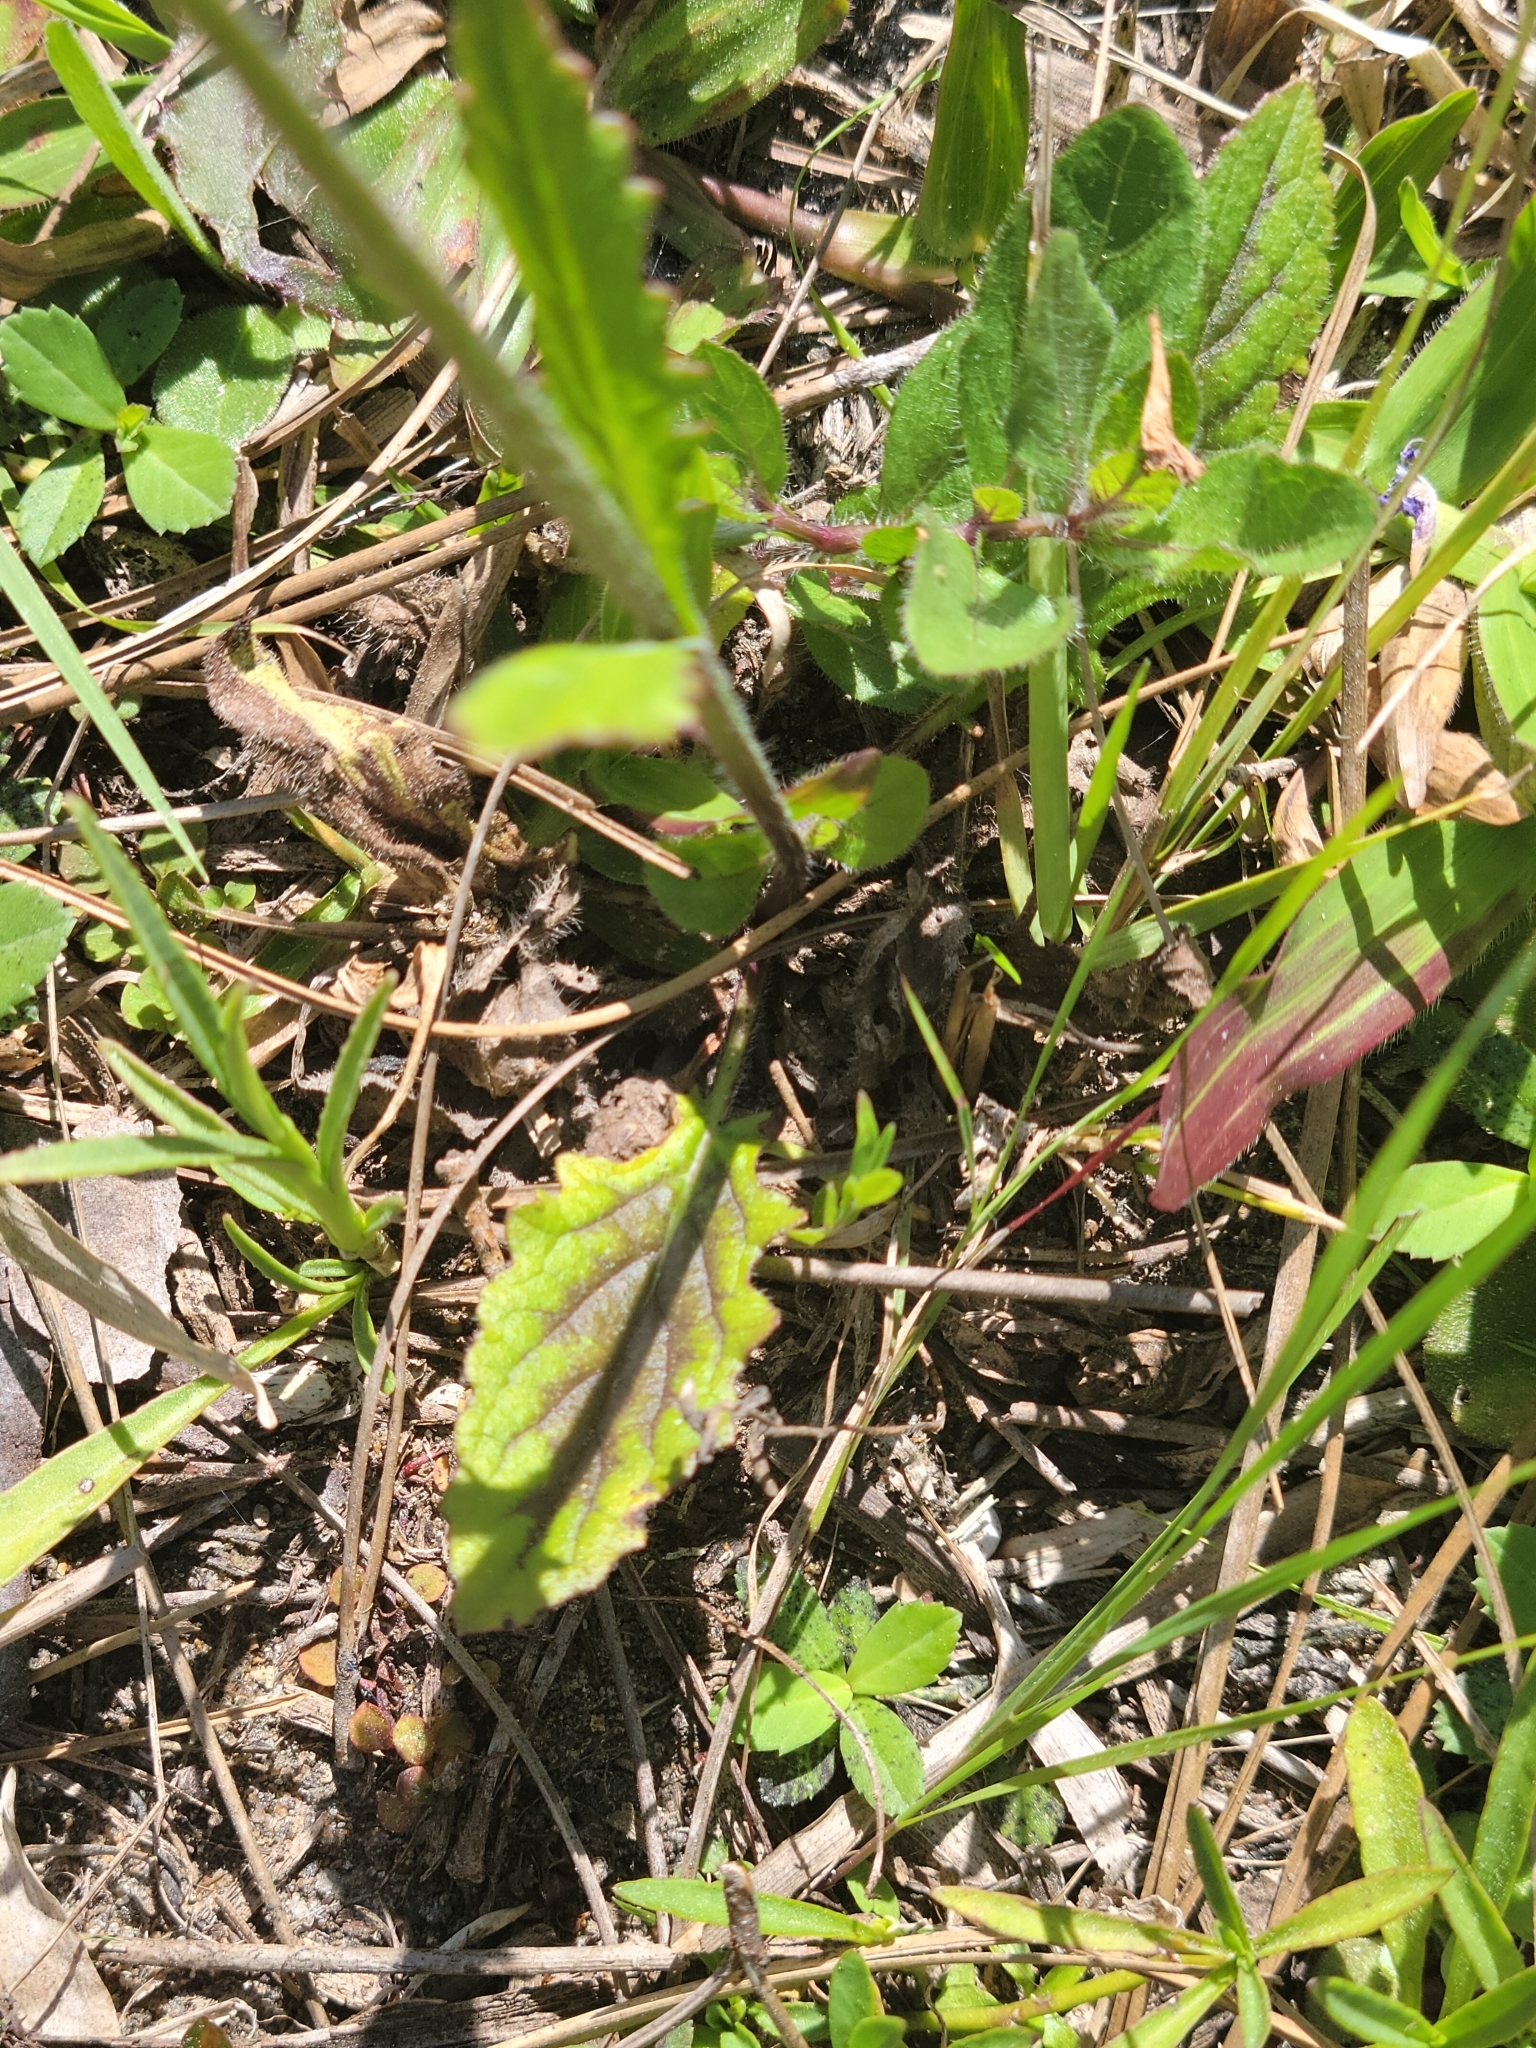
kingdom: Plantae
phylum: Tracheophyta
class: Magnoliopsida
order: Lamiales
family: Lamiaceae
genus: Salvia
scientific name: Salvia lyrata
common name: Cancerweed
